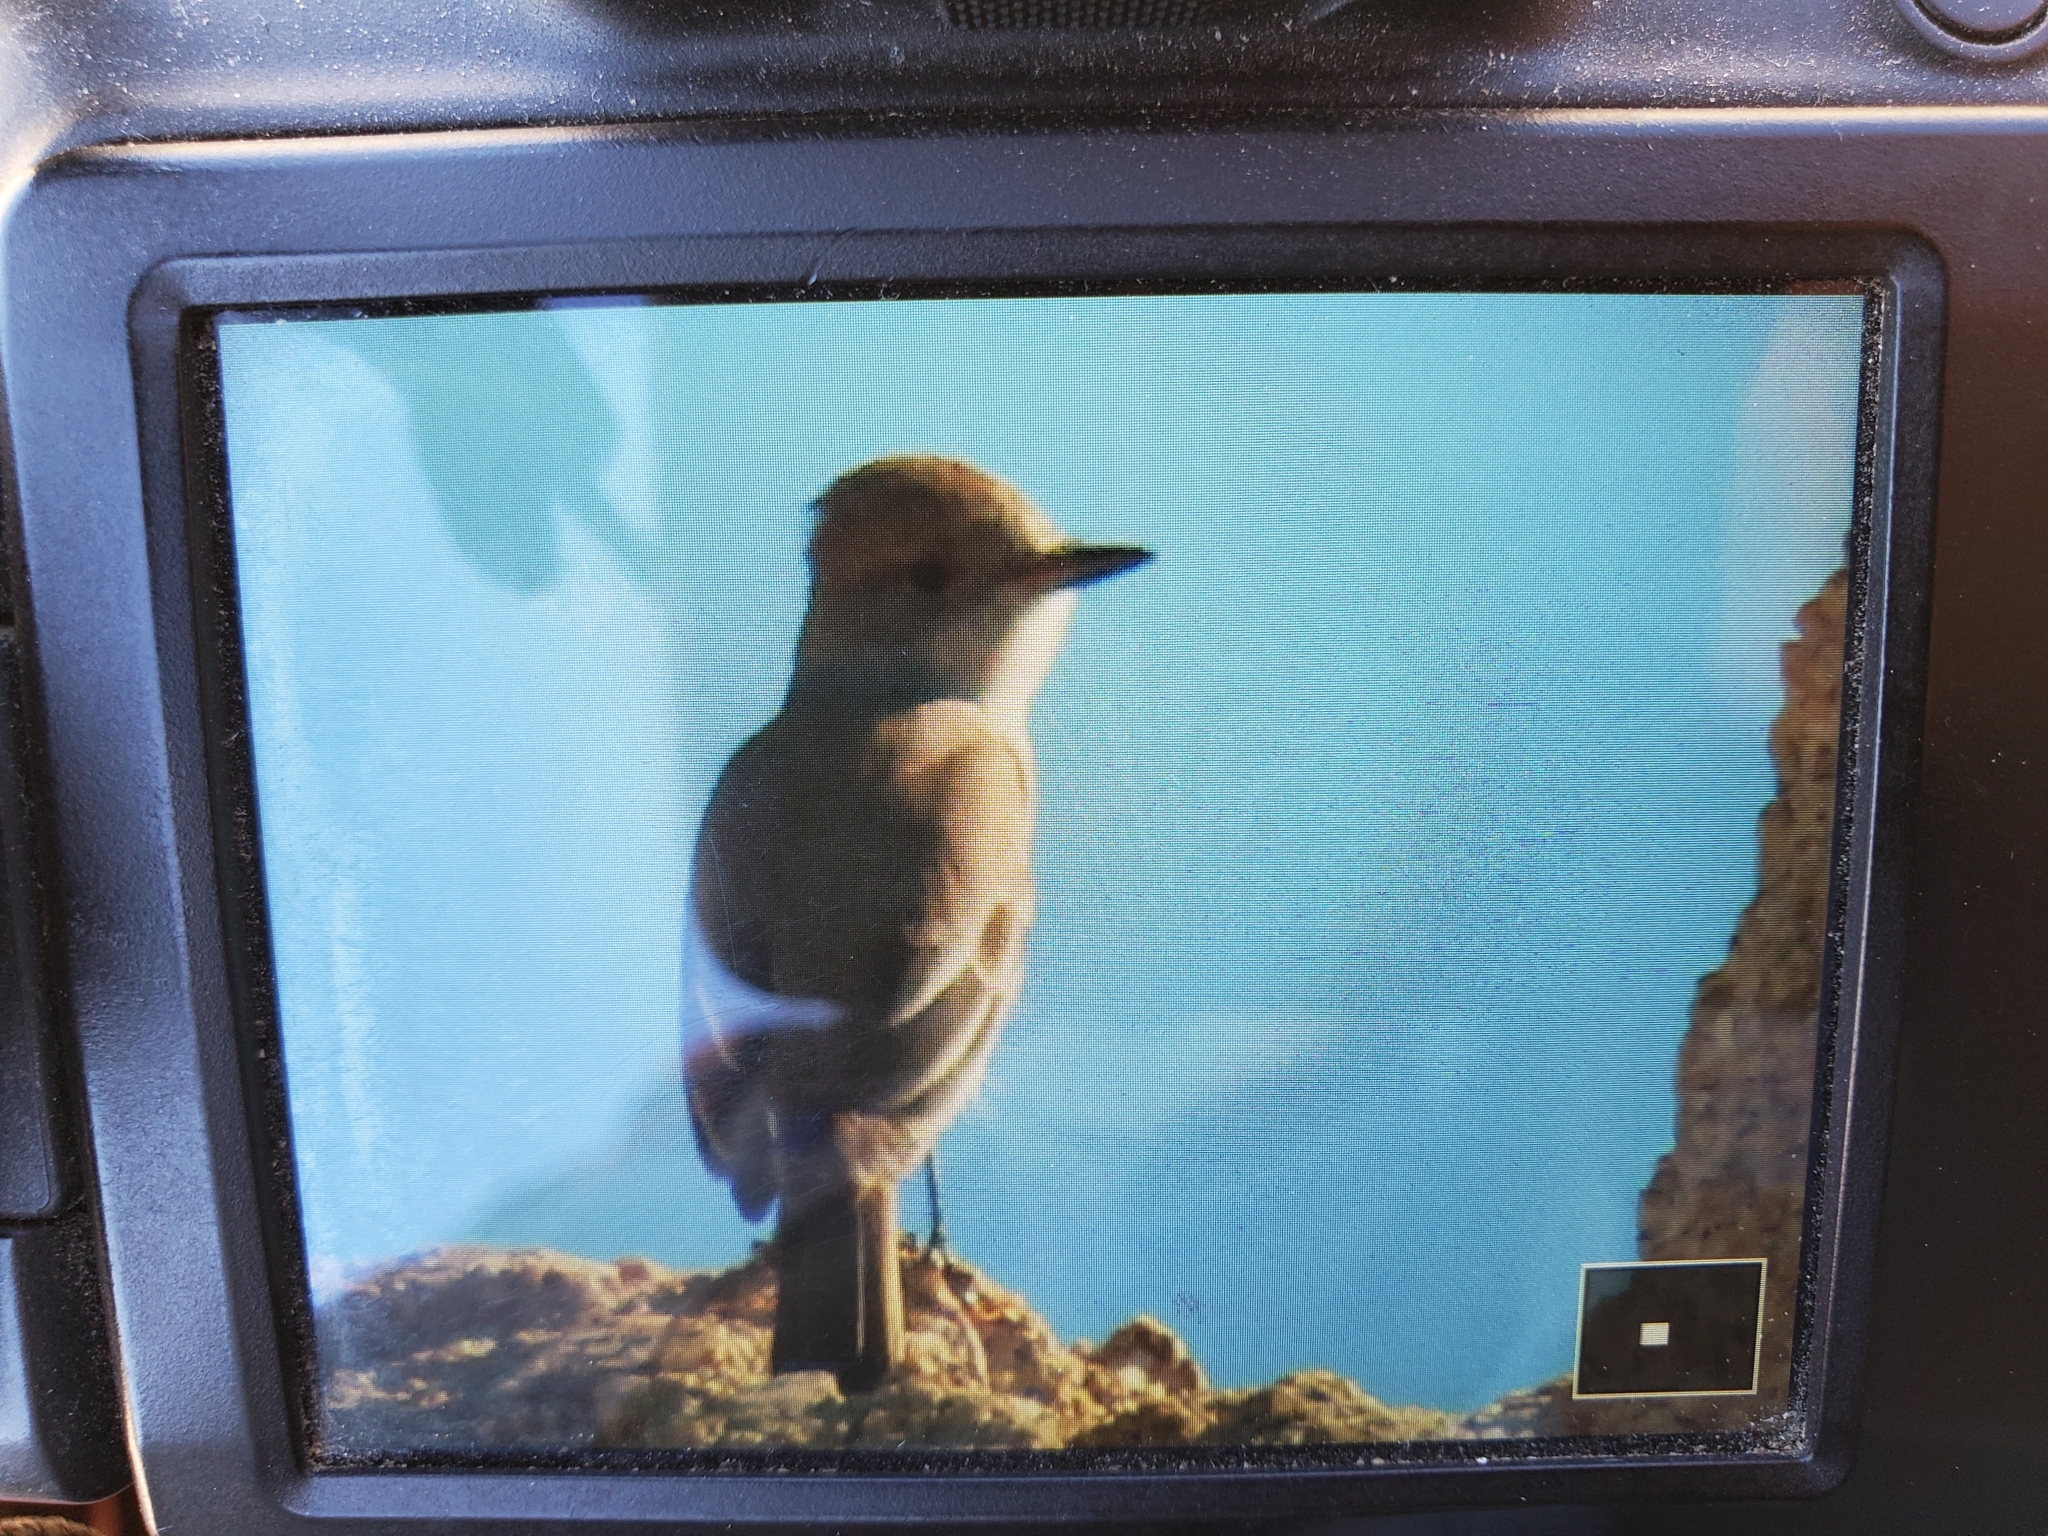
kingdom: Animalia
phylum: Chordata
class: Aves
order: Passeriformes
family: Tyrannidae
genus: Myiarchus
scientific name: Myiarchus cinerascens
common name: Ash-throated flycatcher
